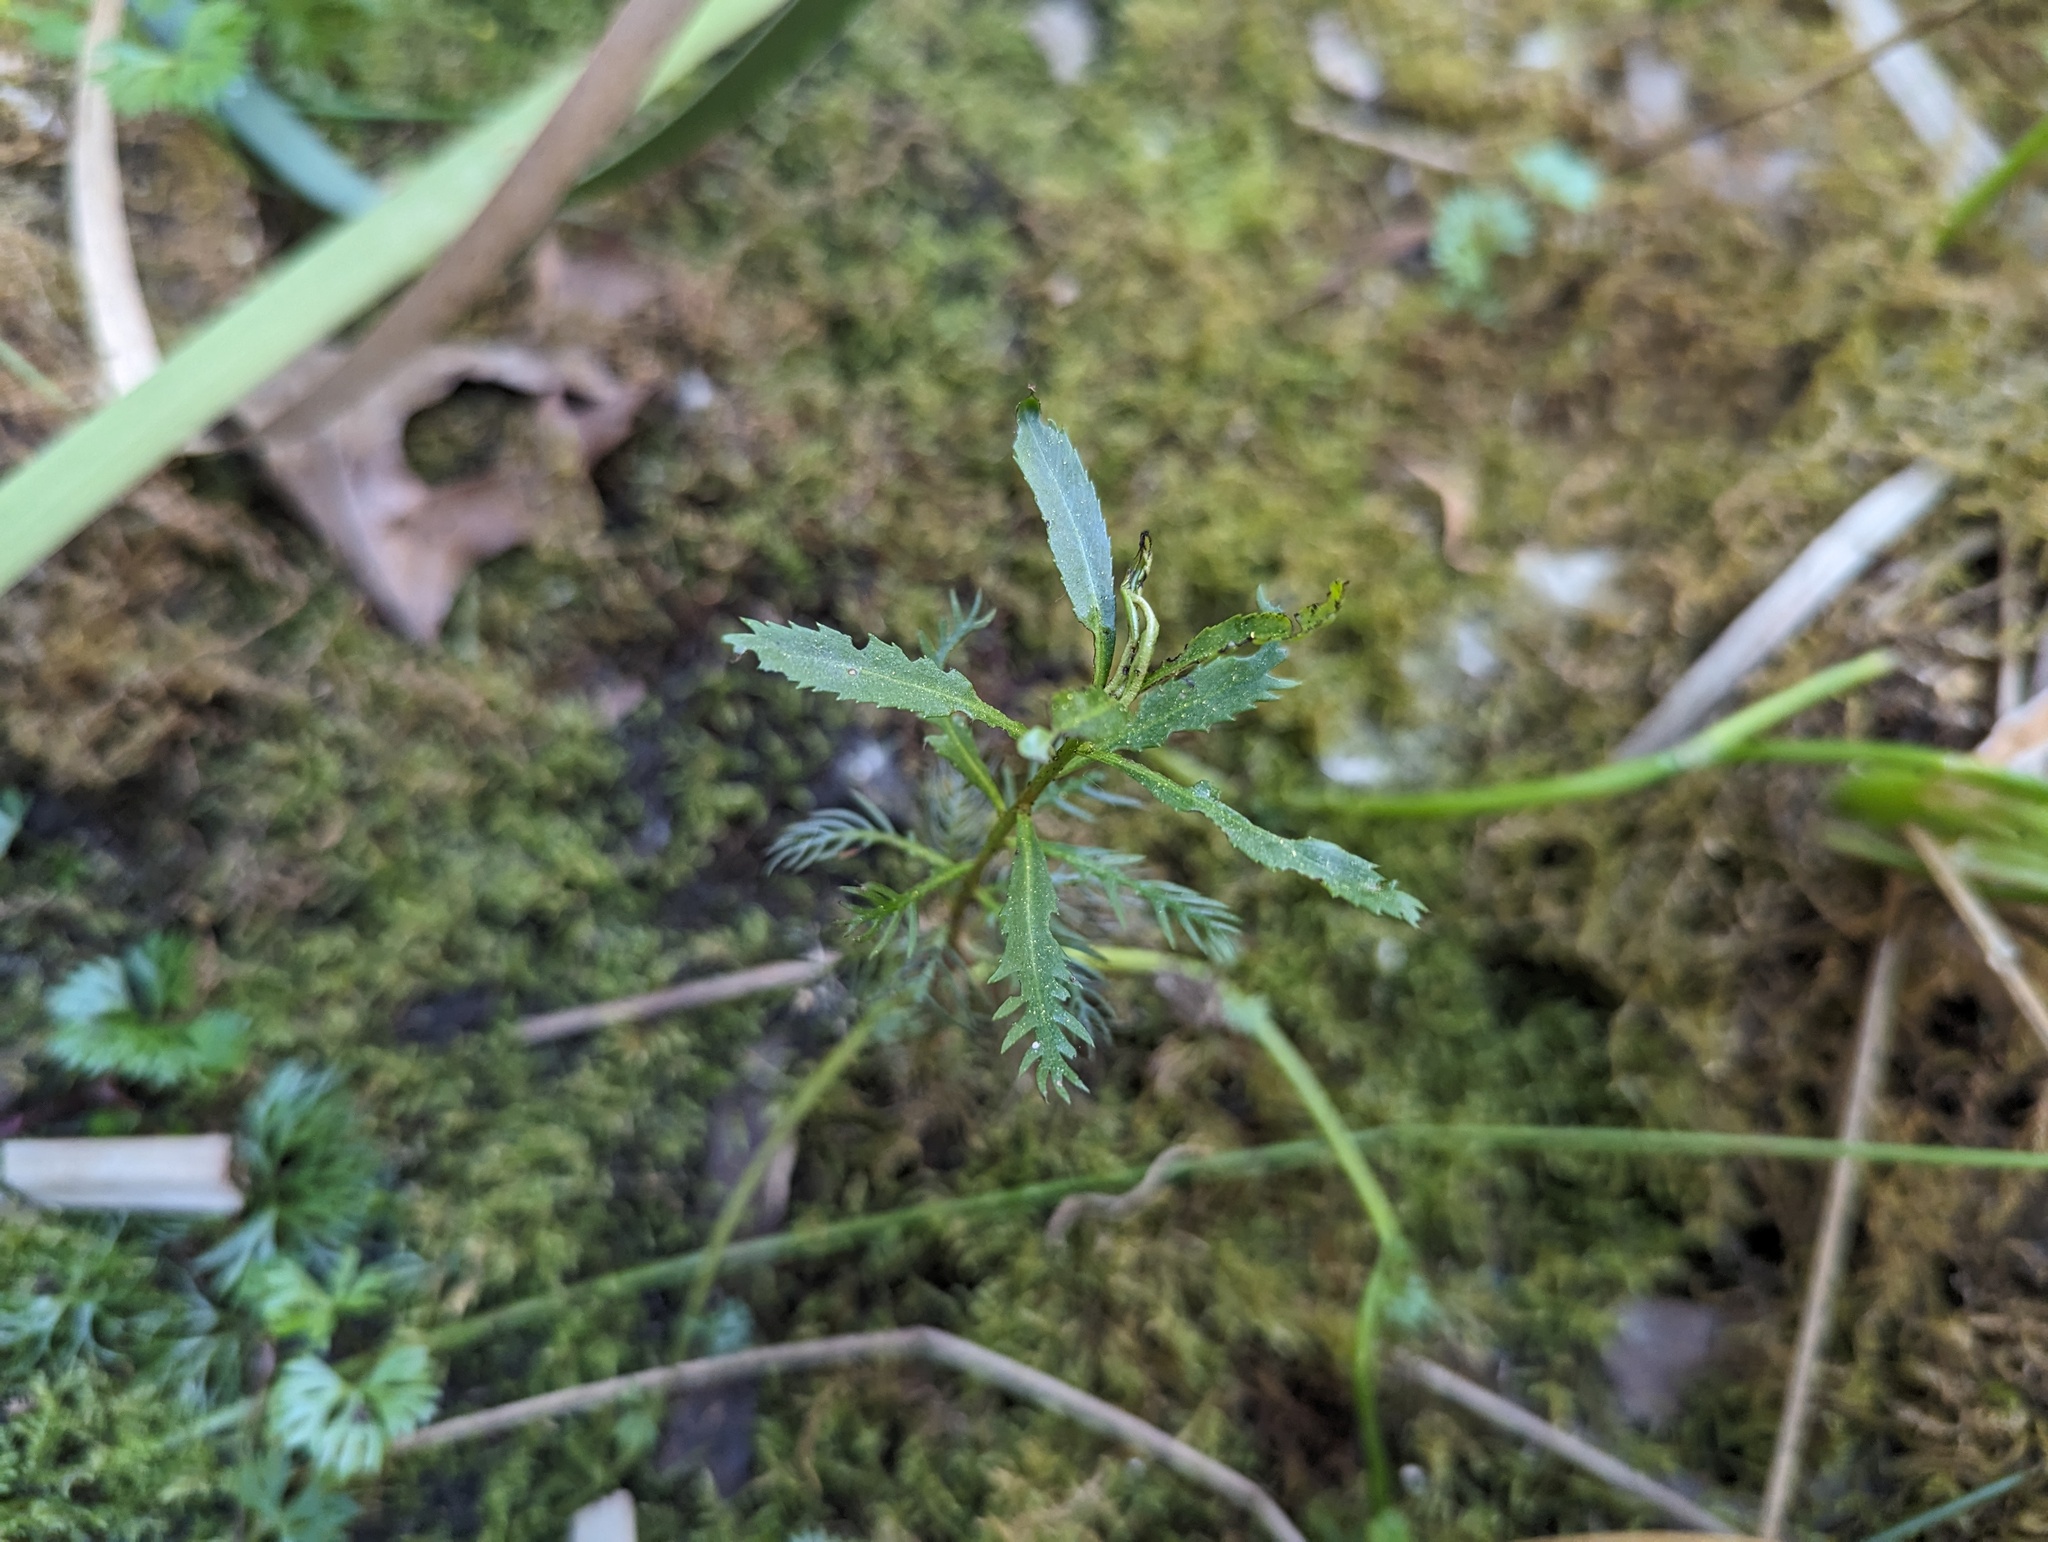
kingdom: Plantae
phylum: Tracheophyta
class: Magnoliopsida
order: Saxifragales
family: Haloragaceae
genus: Proserpinaca
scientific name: Proserpinaca palustris
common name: Marsh mermaidweed
